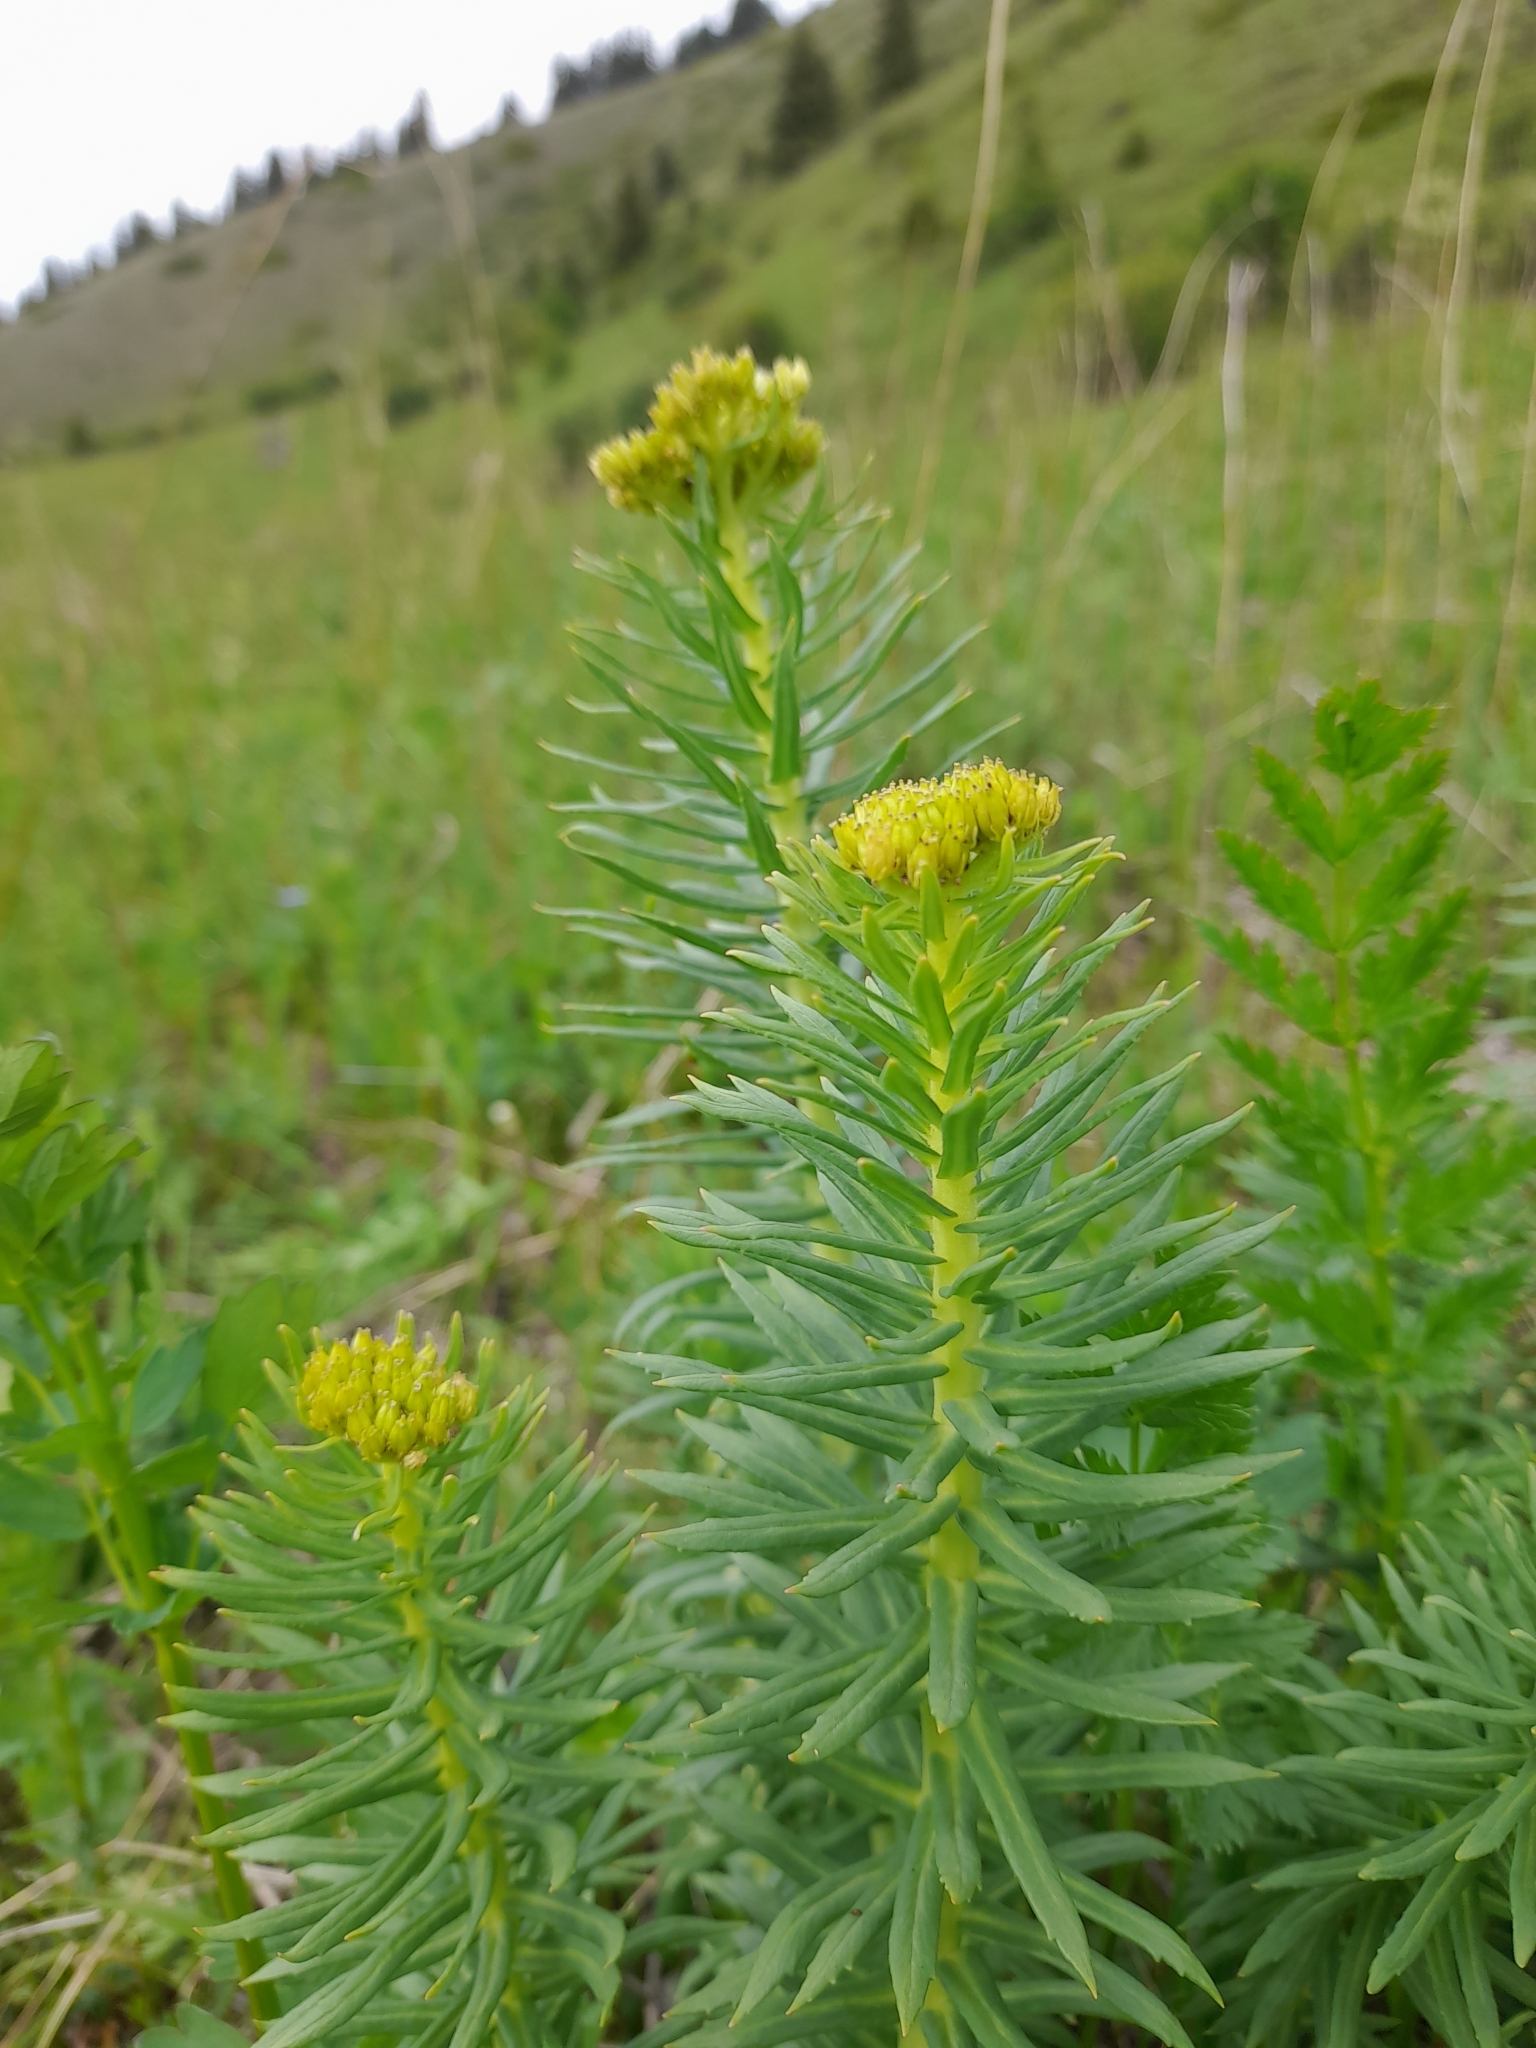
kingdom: Plantae
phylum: Tracheophyta
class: Magnoliopsida
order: Saxifragales
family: Crassulaceae
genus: Rhodiola
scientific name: Rhodiola kirilowii
